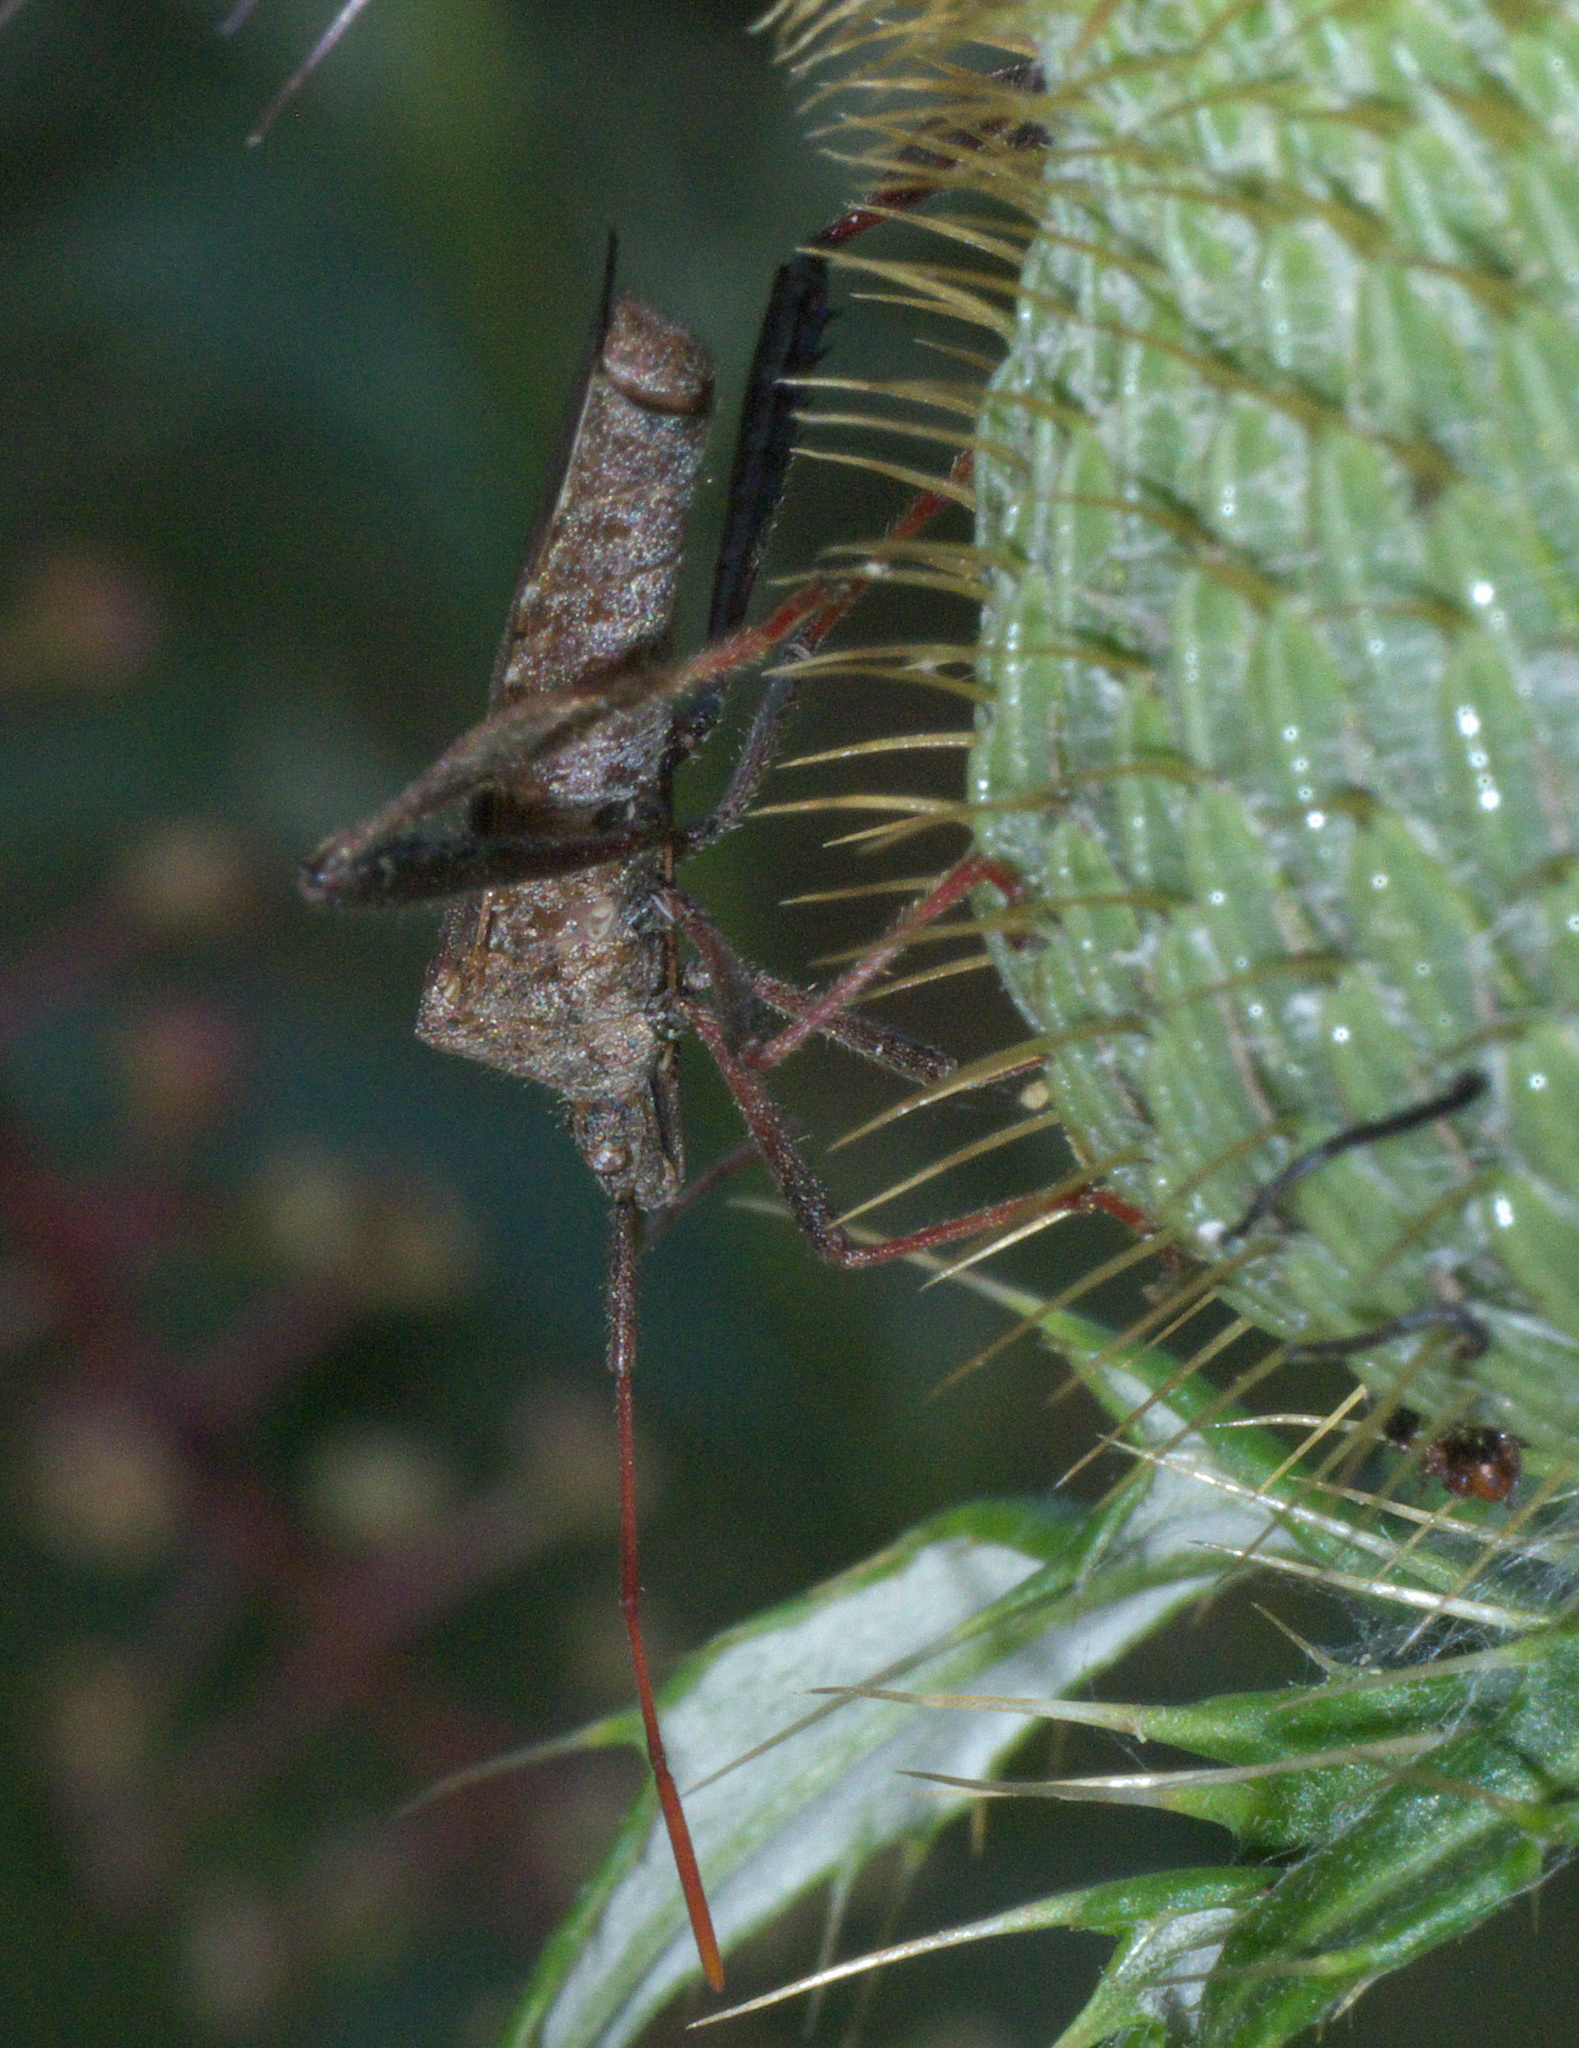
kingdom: Animalia
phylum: Arthropoda
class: Insecta
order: Hemiptera
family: Coreidae
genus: Leptoglossus
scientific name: Leptoglossus phyllopus
